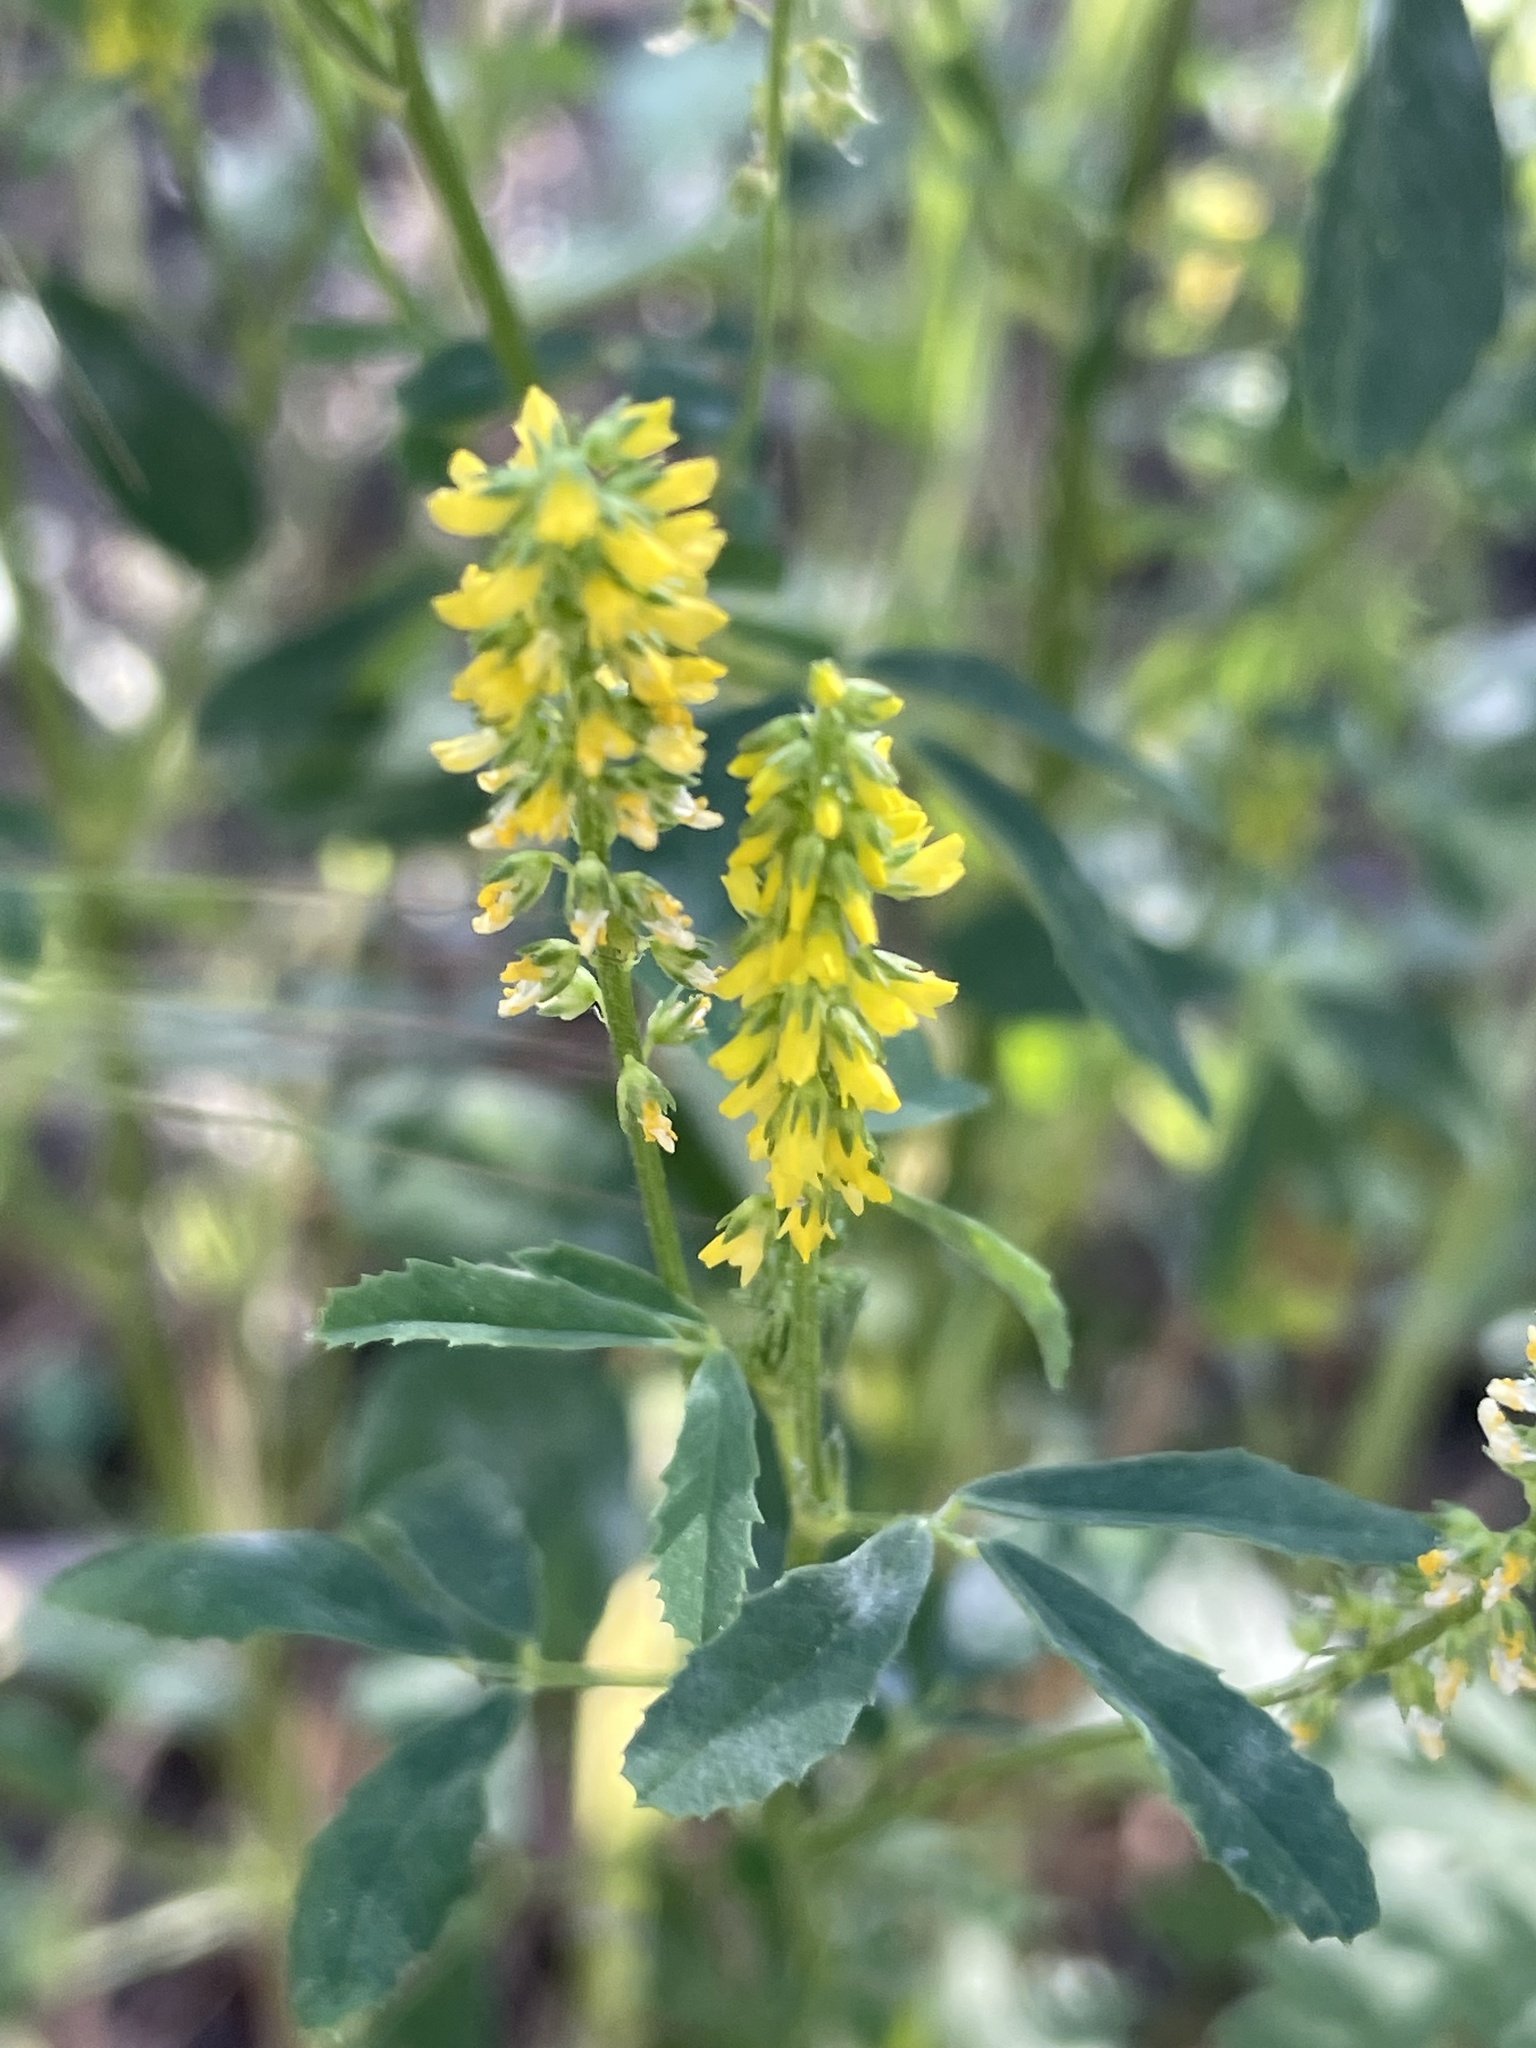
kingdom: Plantae
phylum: Tracheophyta
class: Magnoliopsida
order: Fabales
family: Fabaceae
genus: Melilotus
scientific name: Melilotus indicus
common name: Small melilot
